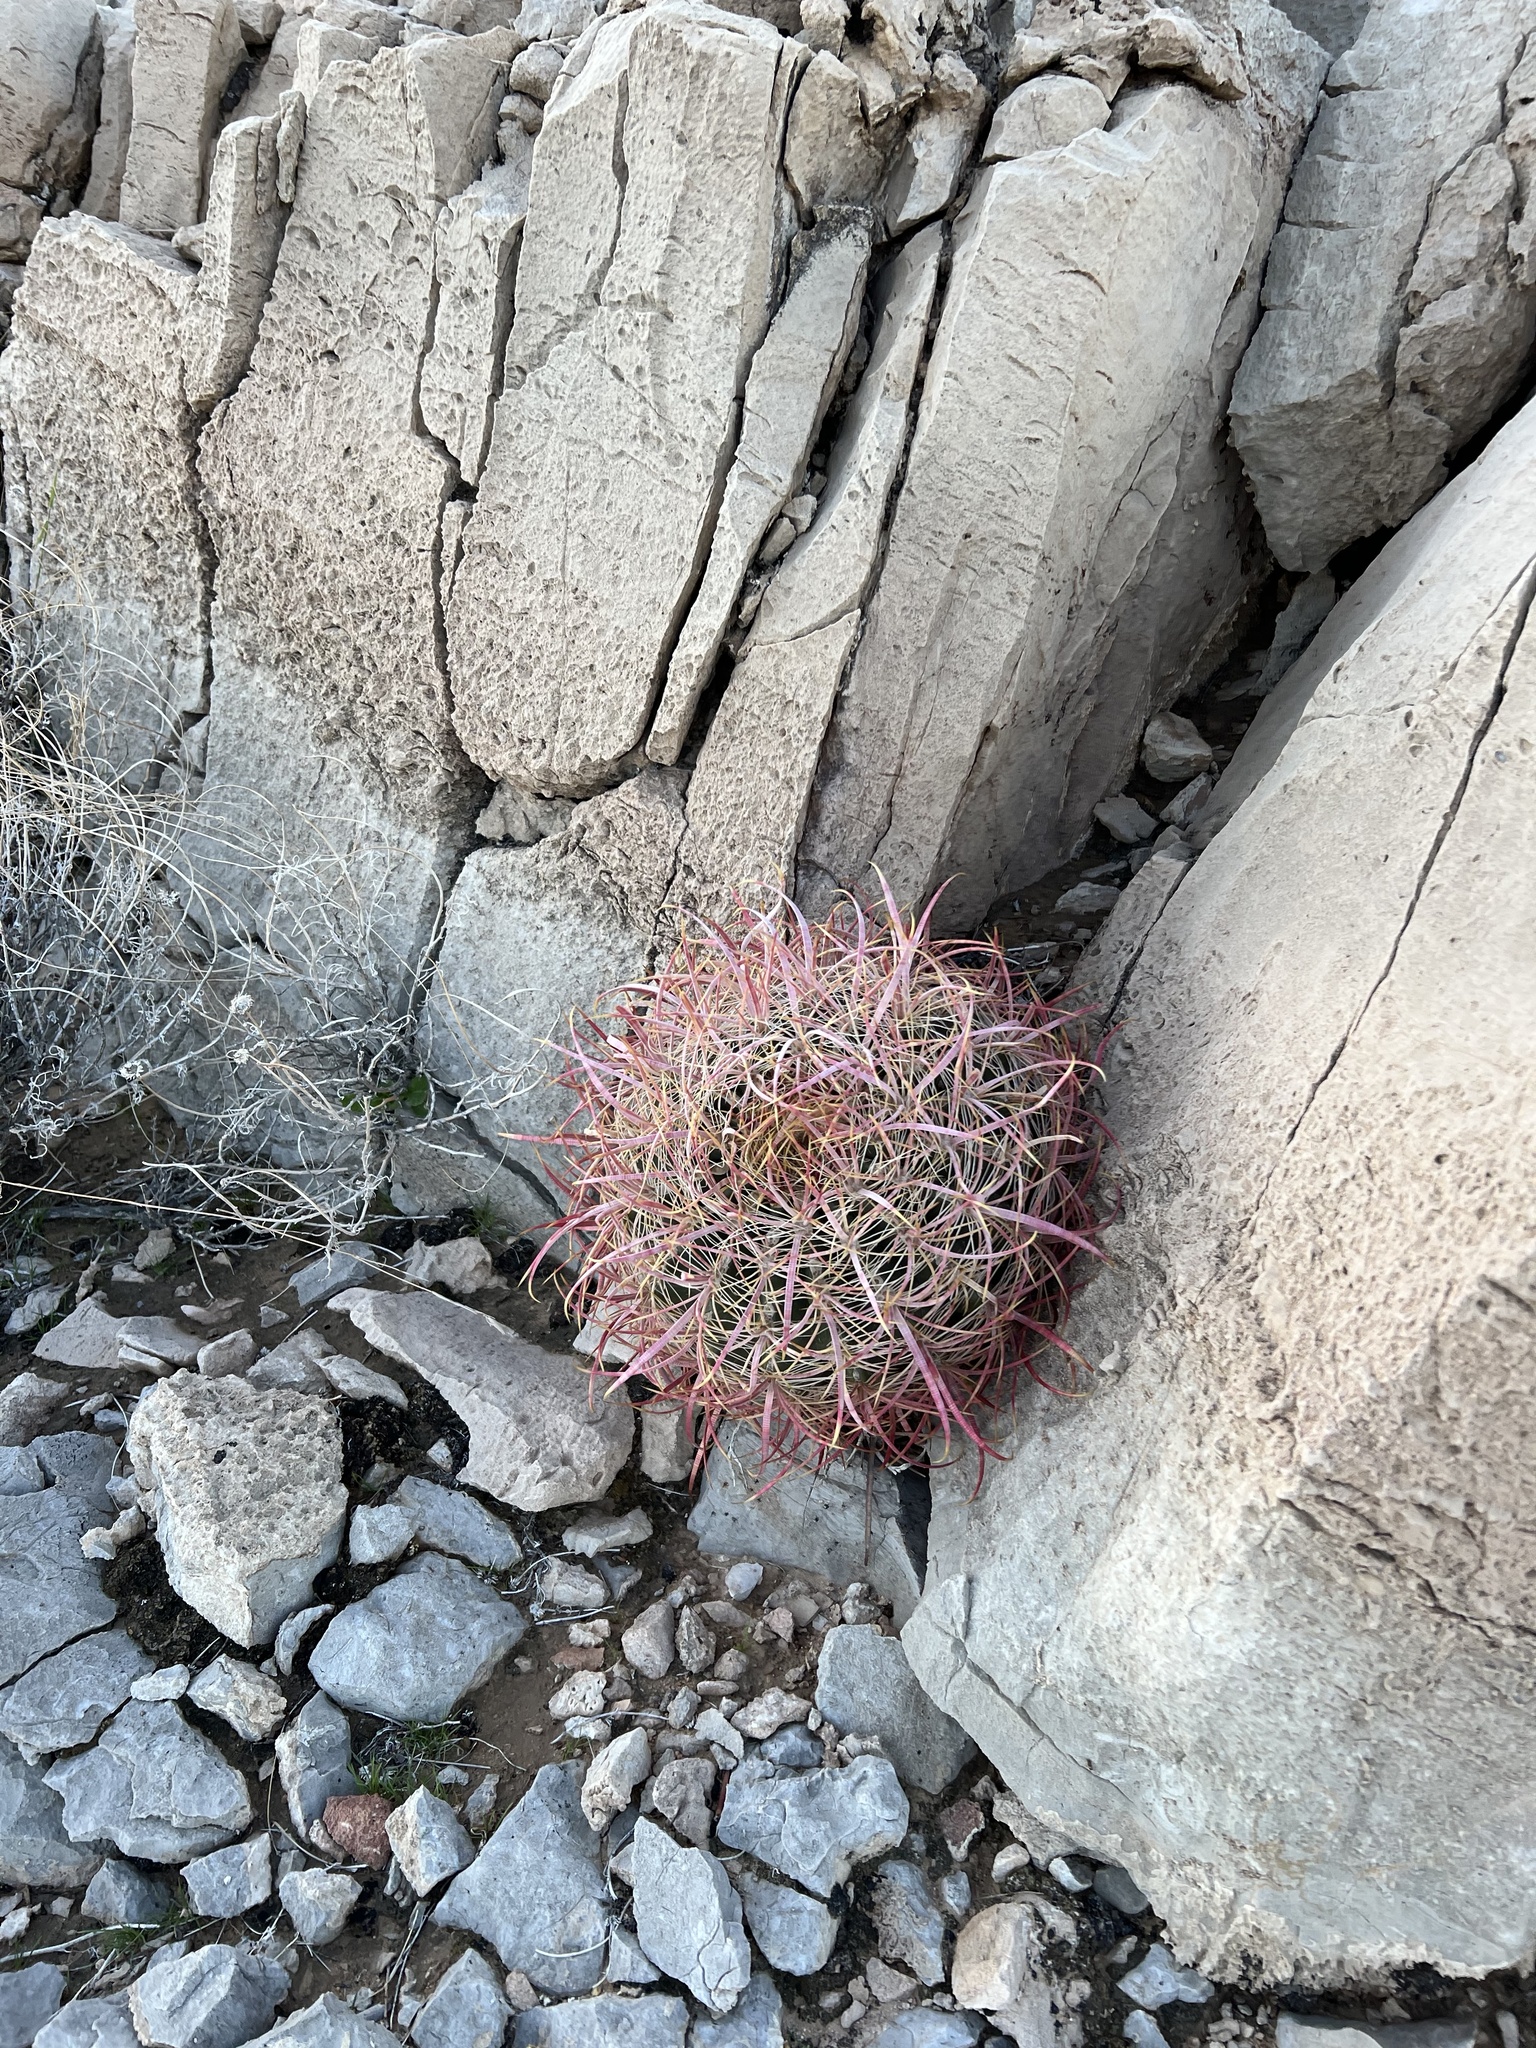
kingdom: Plantae
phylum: Tracheophyta
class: Magnoliopsida
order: Caryophyllales
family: Cactaceae
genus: Ferocactus
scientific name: Ferocactus cylindraceus
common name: California barrel cactus
